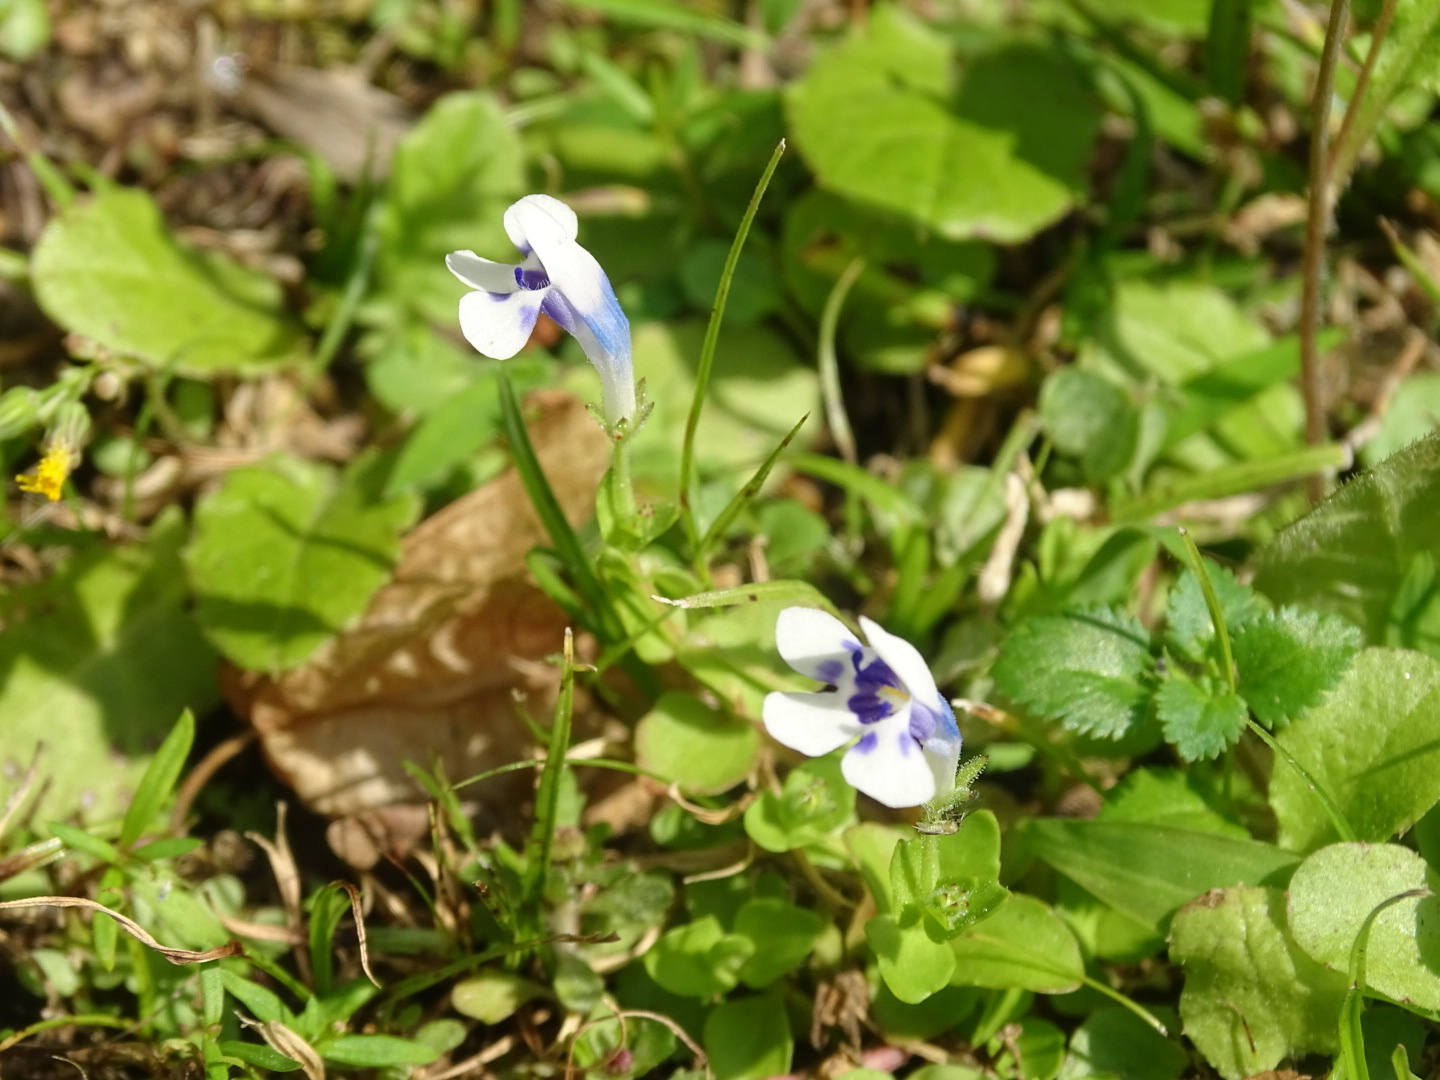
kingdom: Plantae
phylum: Tracheophyta
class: Magnoliopsida
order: Lamiales
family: Linderniaceae
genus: Lindernia
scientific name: Lindernia rotundifolia
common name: Baby’s tears
